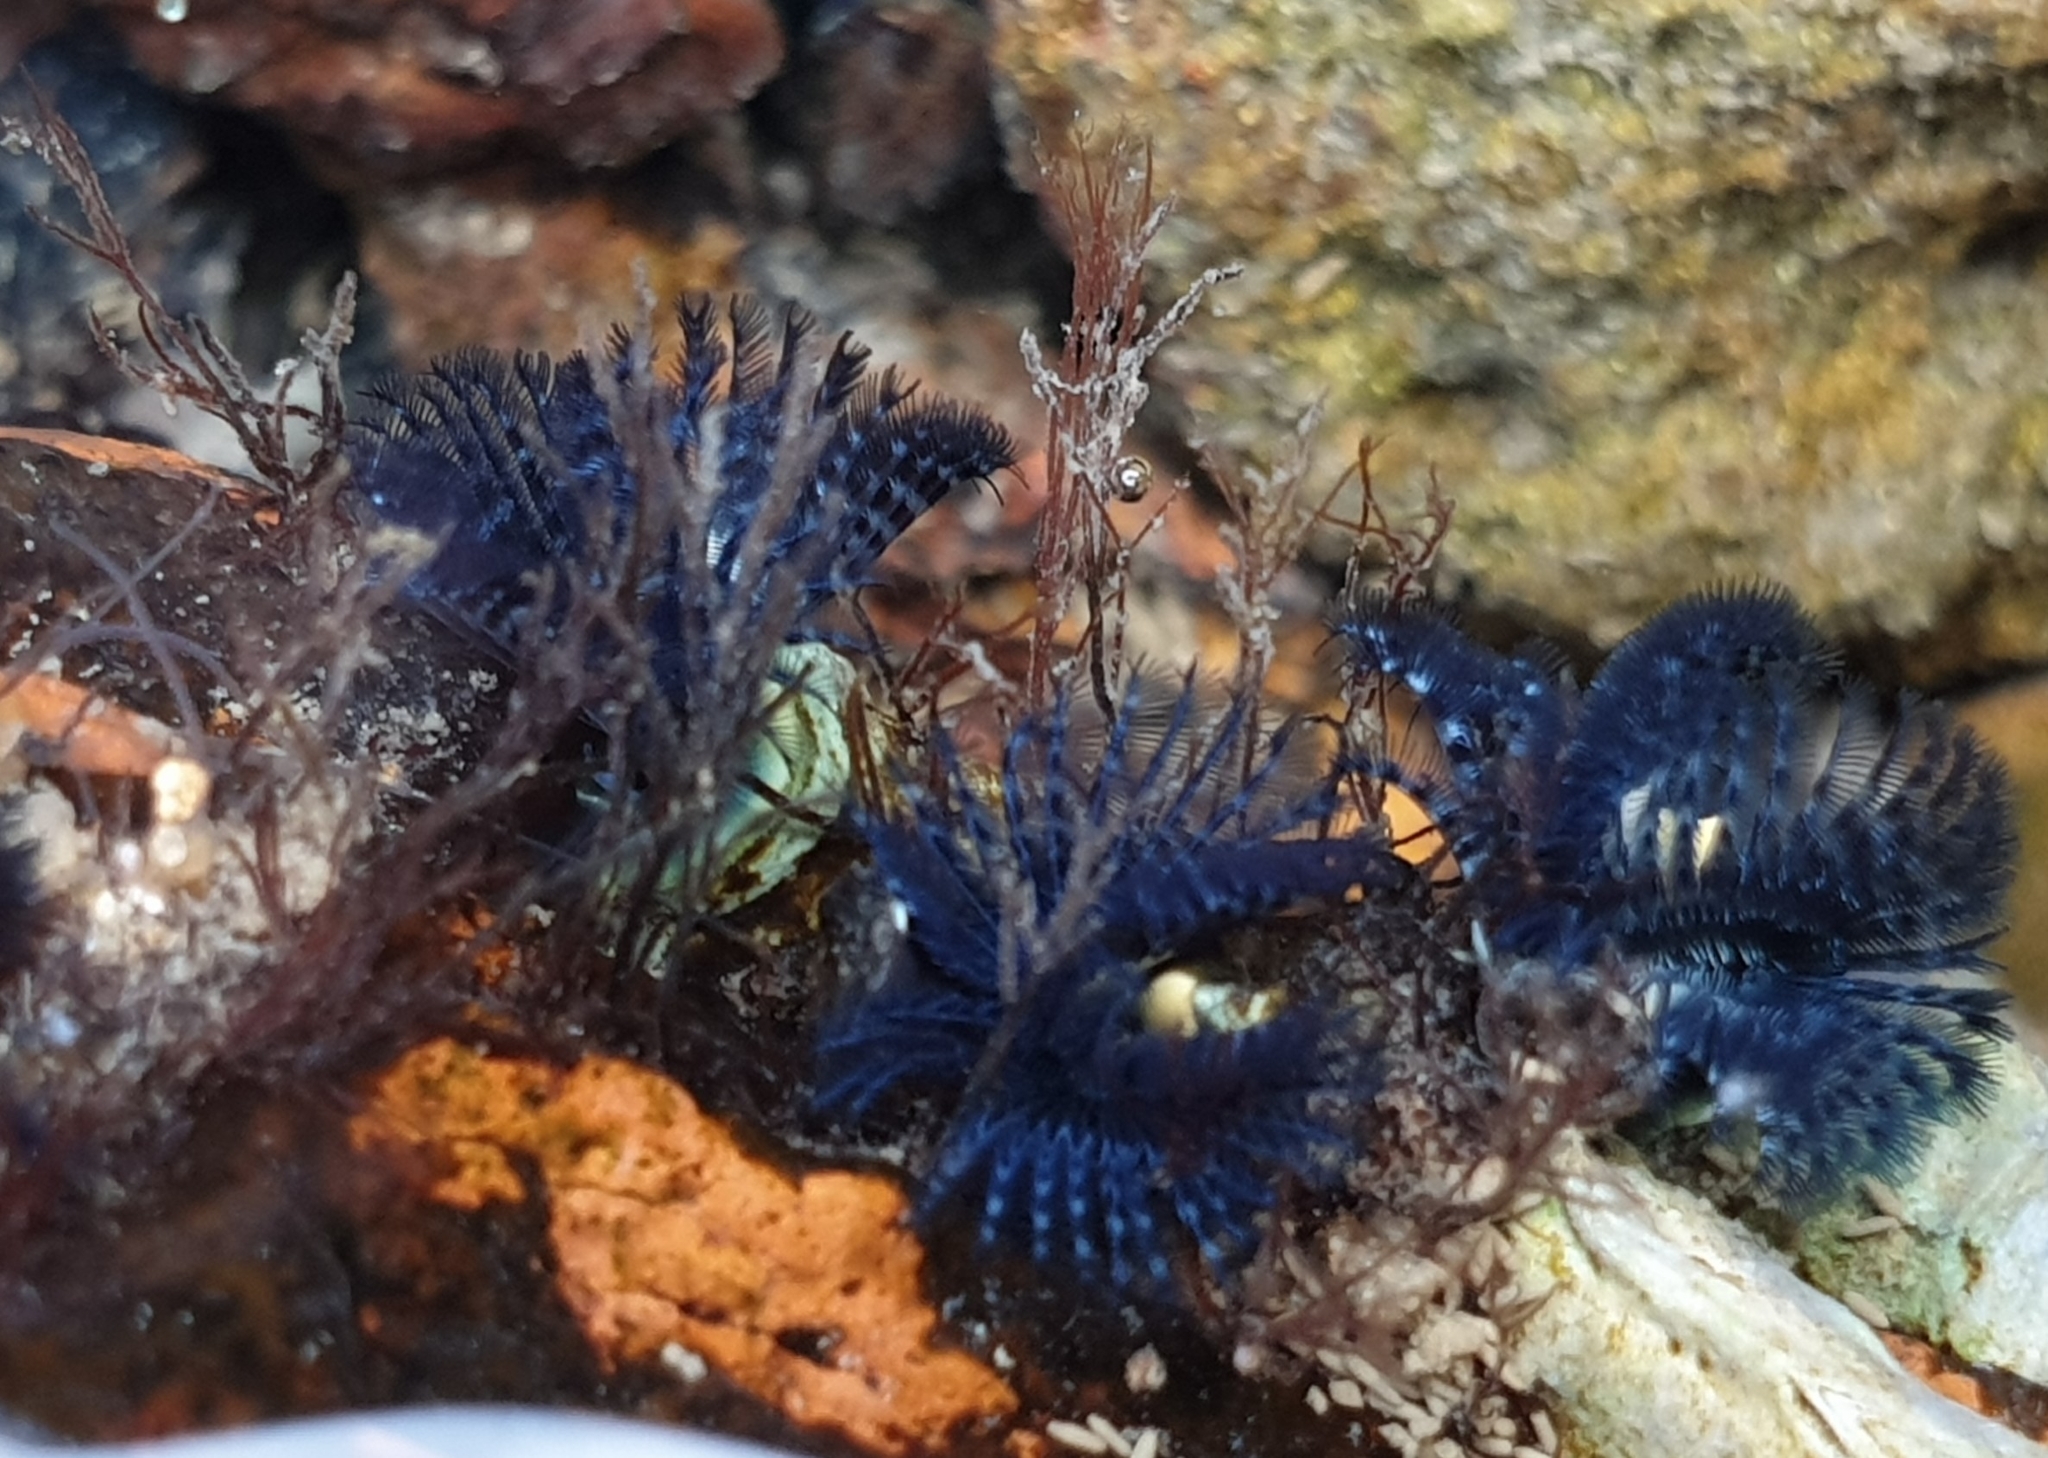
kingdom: Animalia
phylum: Annelida
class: Polychaeta
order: Sabellida
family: Serpulidae
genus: Spirobranchus
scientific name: Spirobranchus cariniferus
